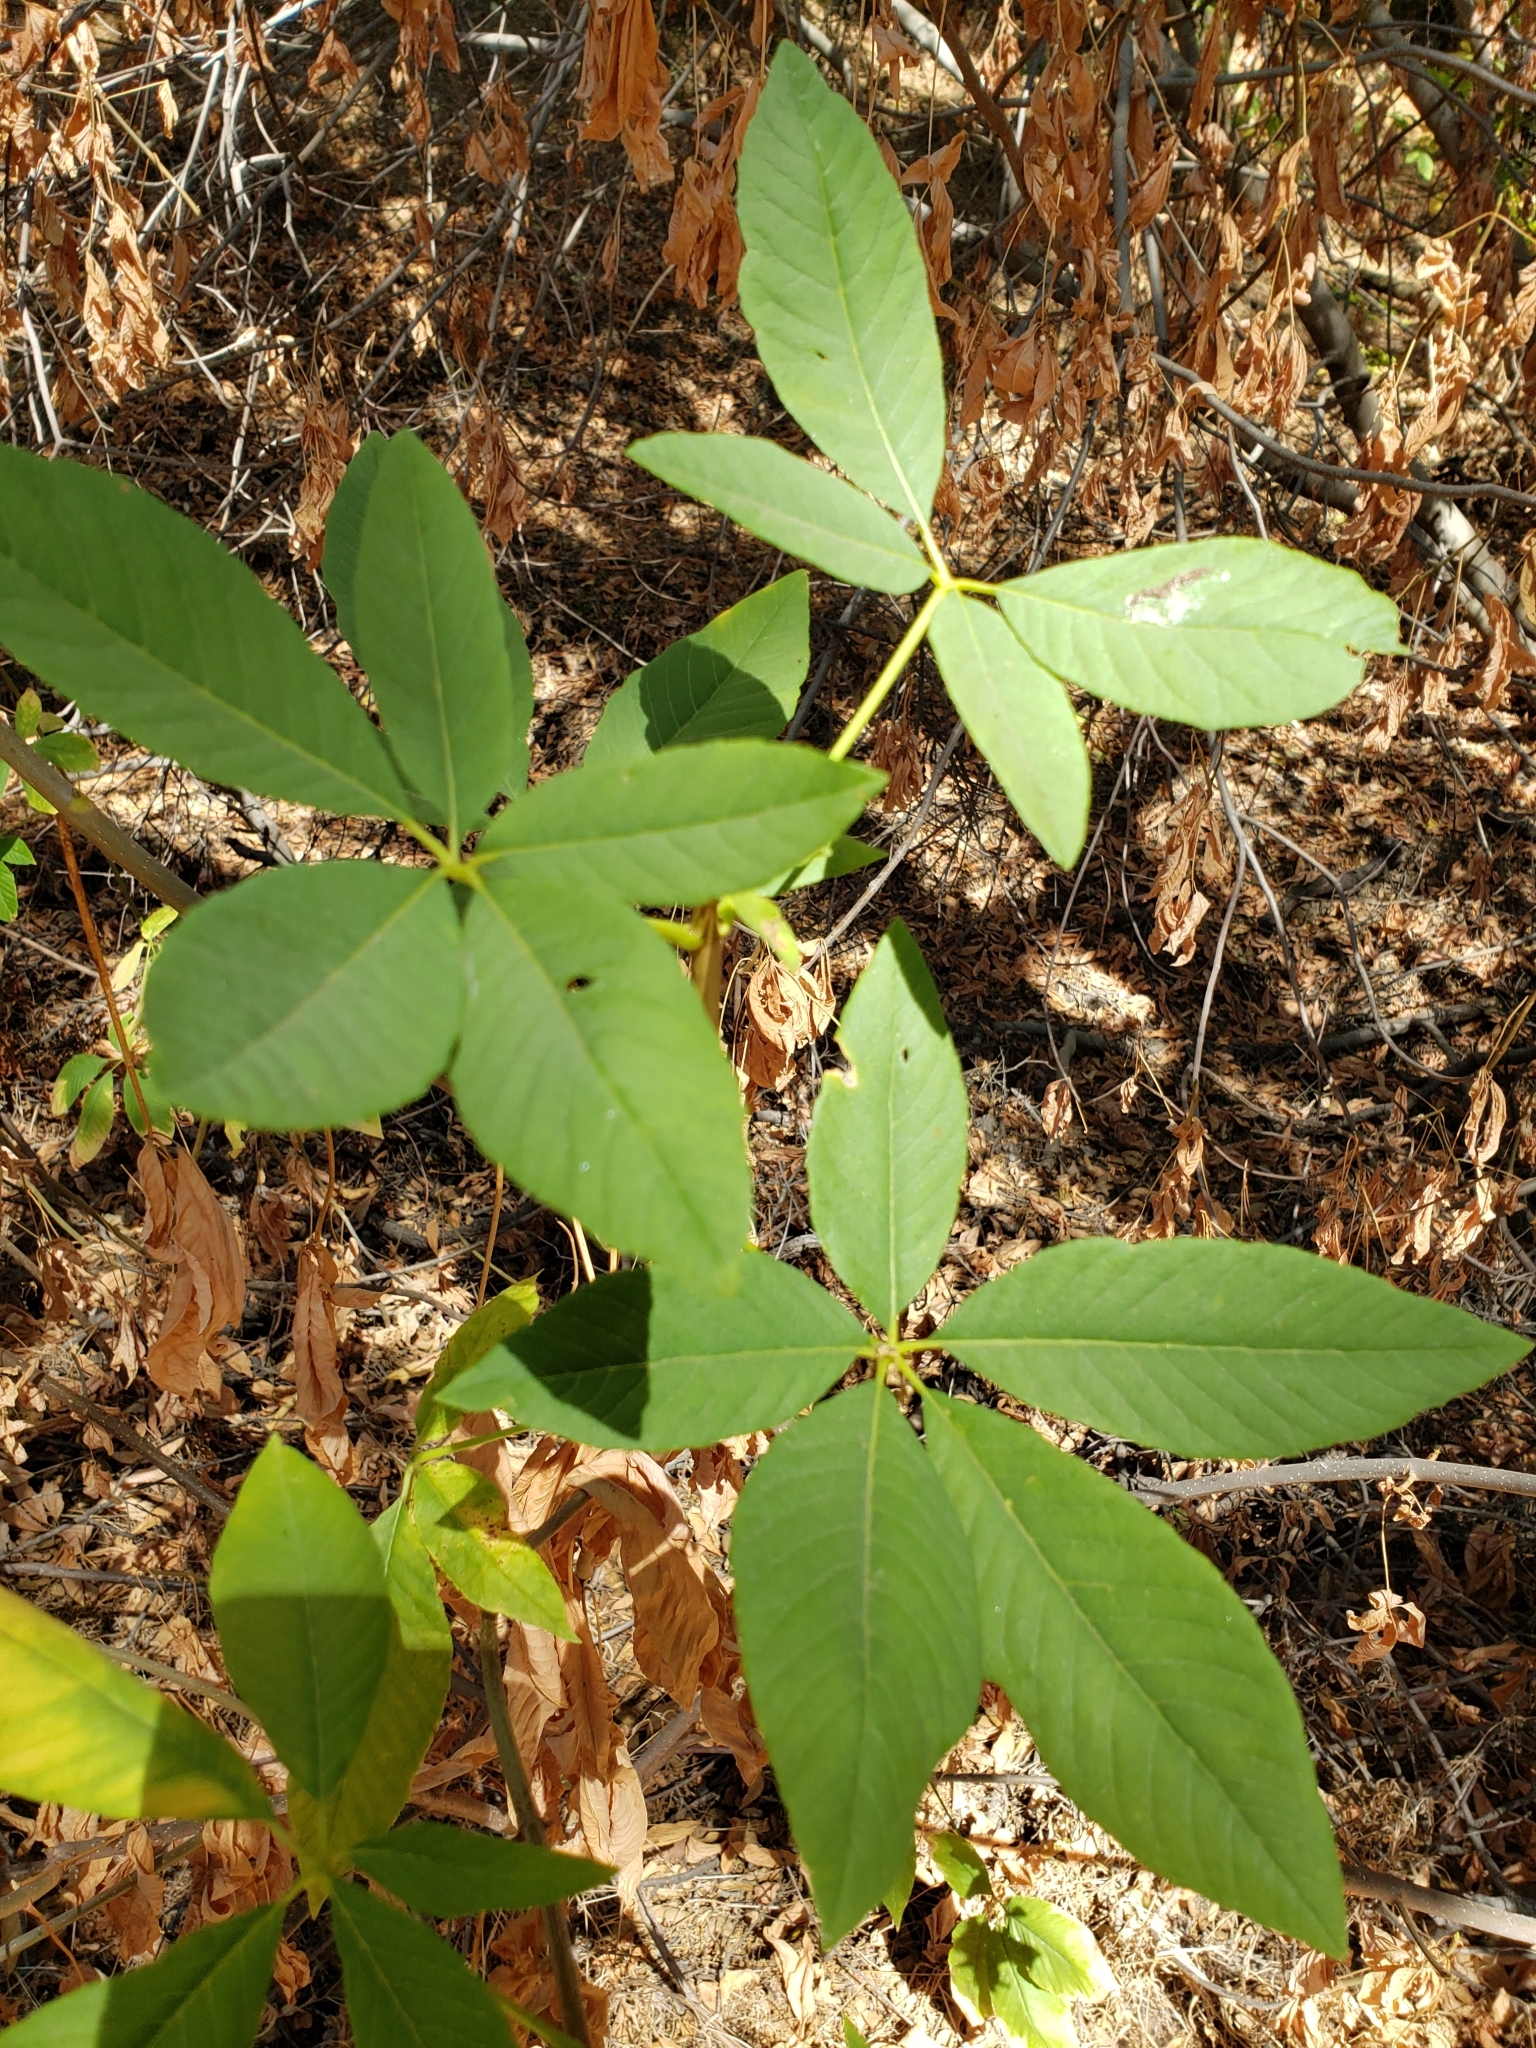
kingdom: Plantae
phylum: Tracheophyta
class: Magnoliopsida
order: Sapindales
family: Sapindaceae
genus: Aesculus
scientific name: Aesculus californica
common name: California buckeye
